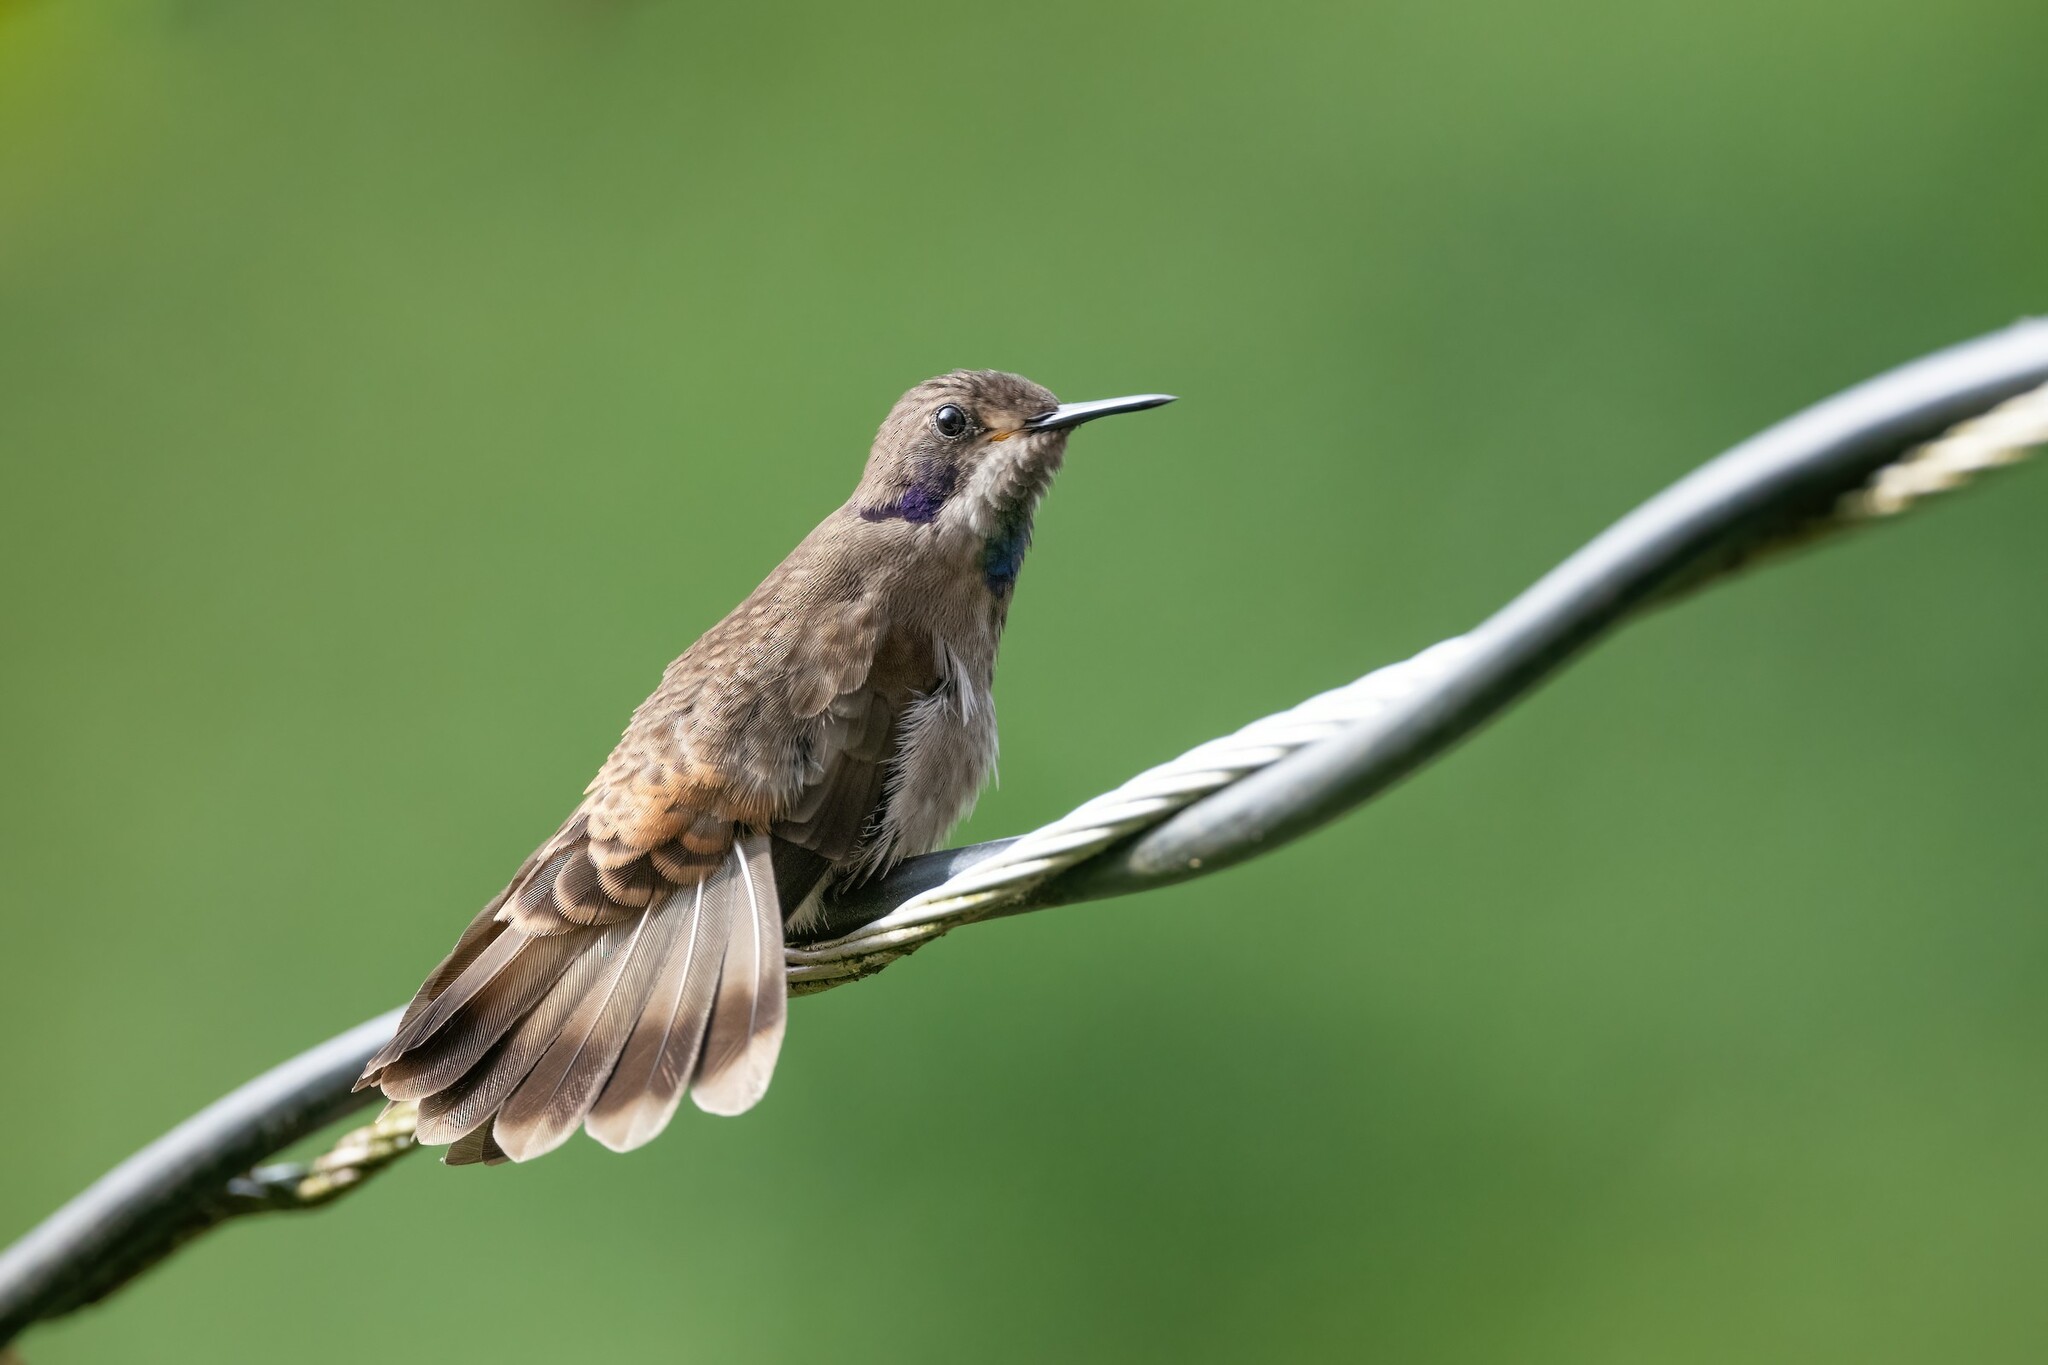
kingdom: Animalia
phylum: Chordata
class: Aves
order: Apodiformes
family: Trochilidae
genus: Colibri
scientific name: Colibri delphinae
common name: Brown violetear
